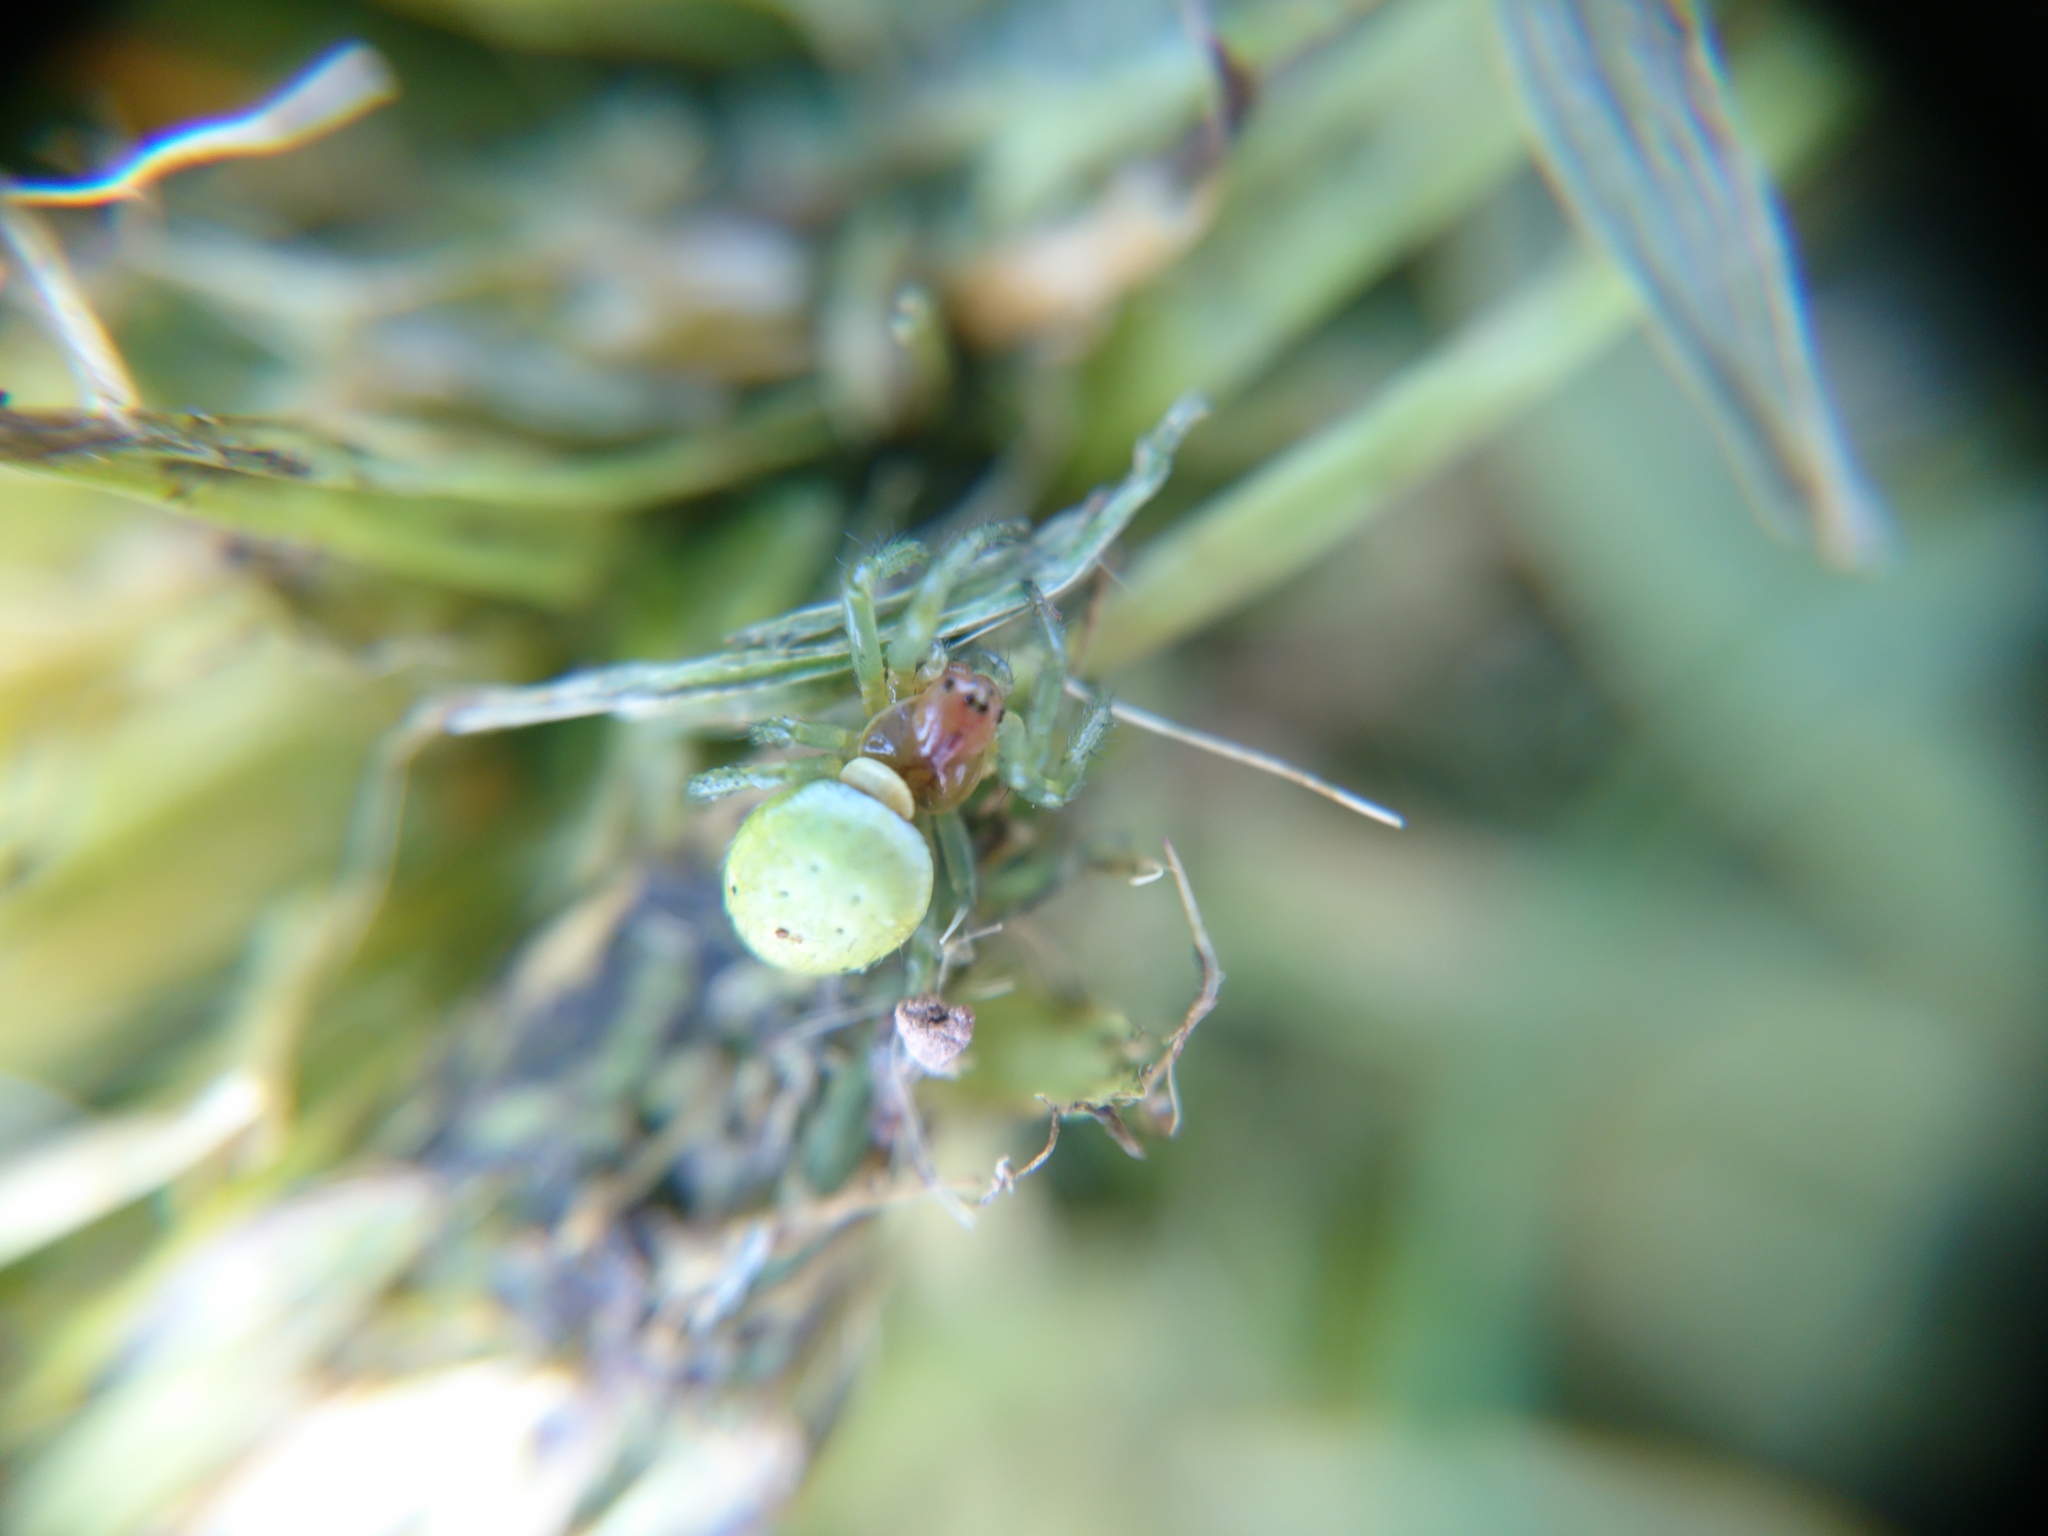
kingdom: Animalia
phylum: Arthropoda
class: Arachnida
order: Araneae
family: Araneidae
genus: Araniella
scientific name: Araniella
